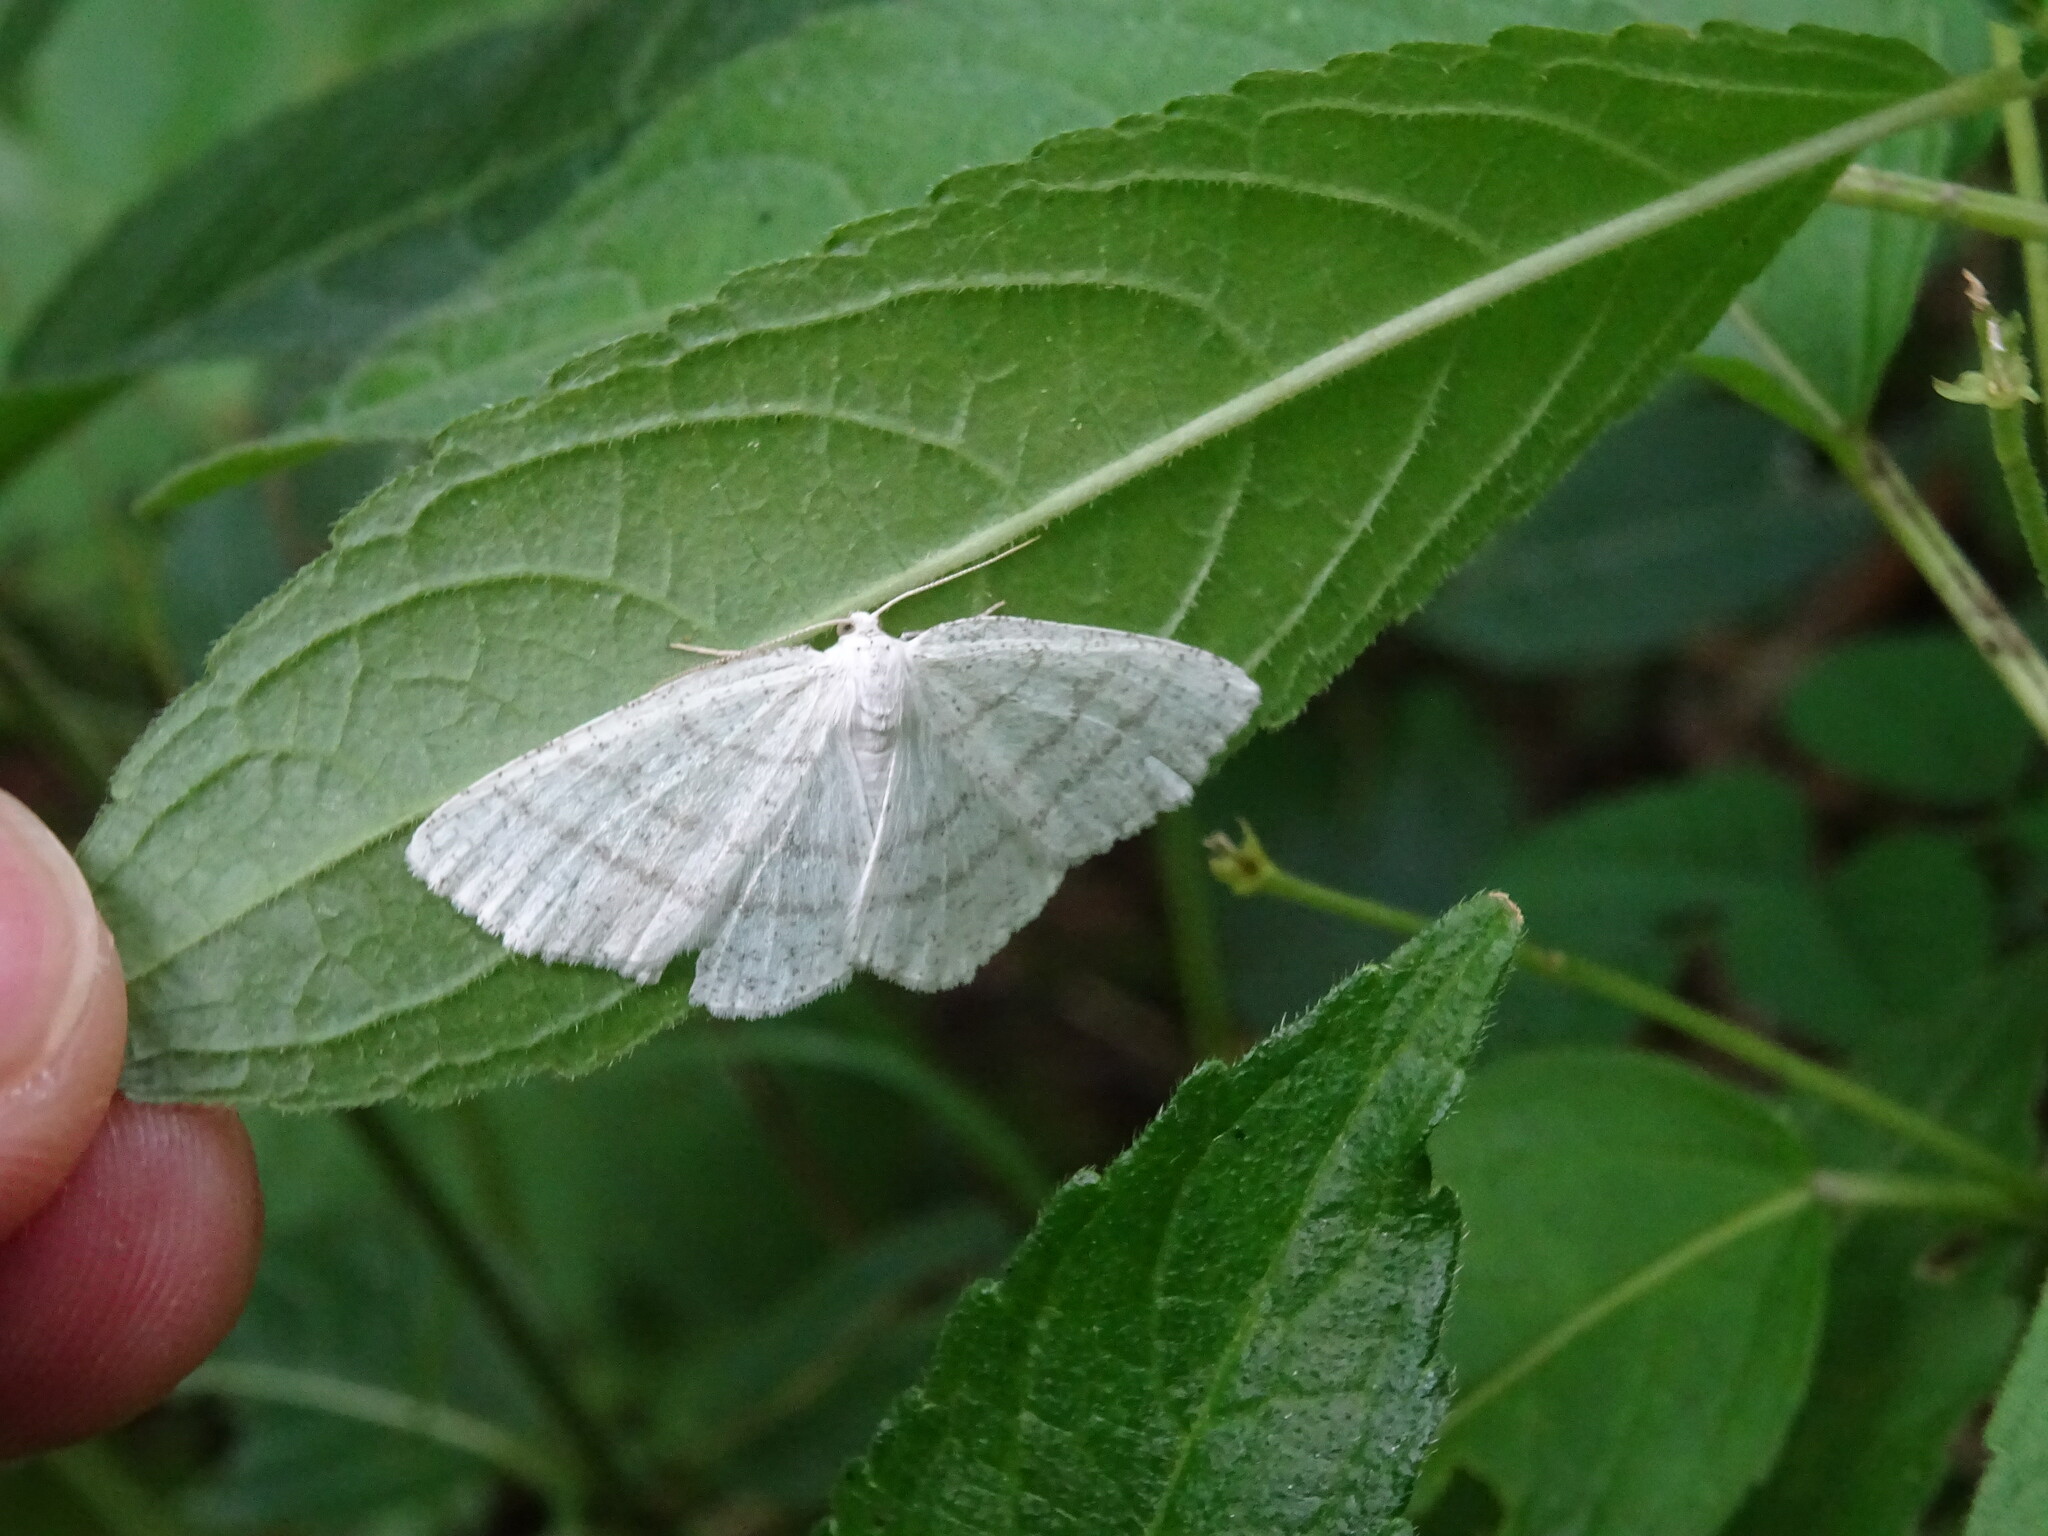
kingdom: Animalia
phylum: Arthropoda
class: Insecta
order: Lepidoptera
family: Geometridae
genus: Cabera
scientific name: Cabera pusaria
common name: Common white wave
